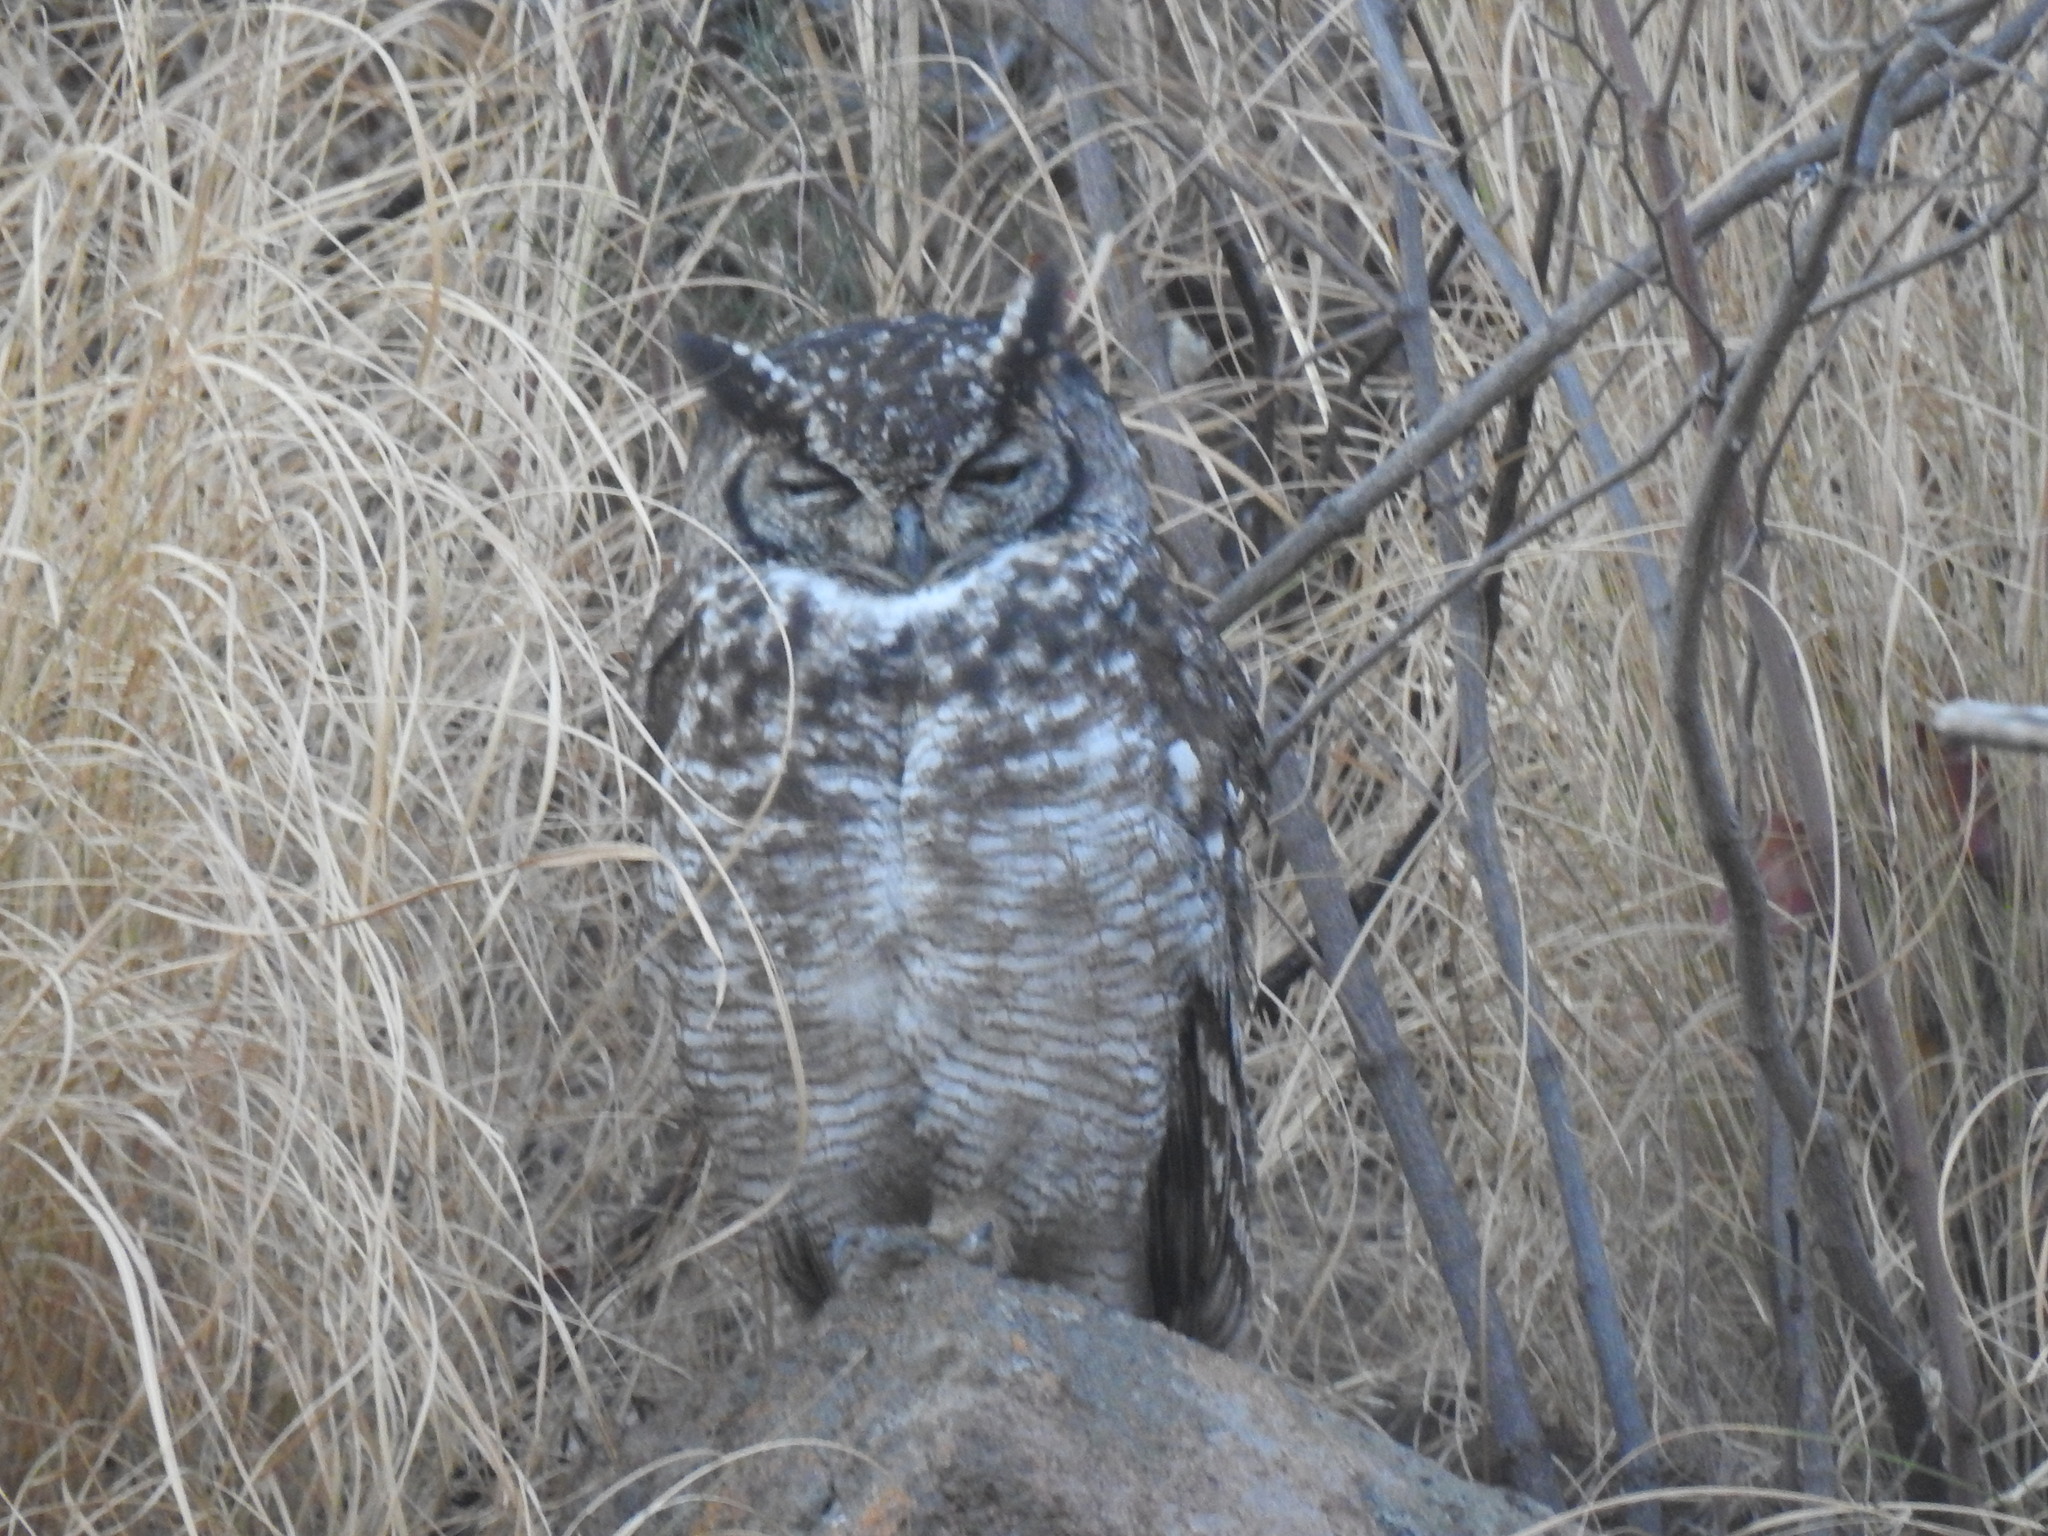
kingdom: Animalia
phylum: Chordata
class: Aves
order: Strigiformes
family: Strigidae
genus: Bubo
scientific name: Bubo africanus
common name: Spotted eagle-owl
